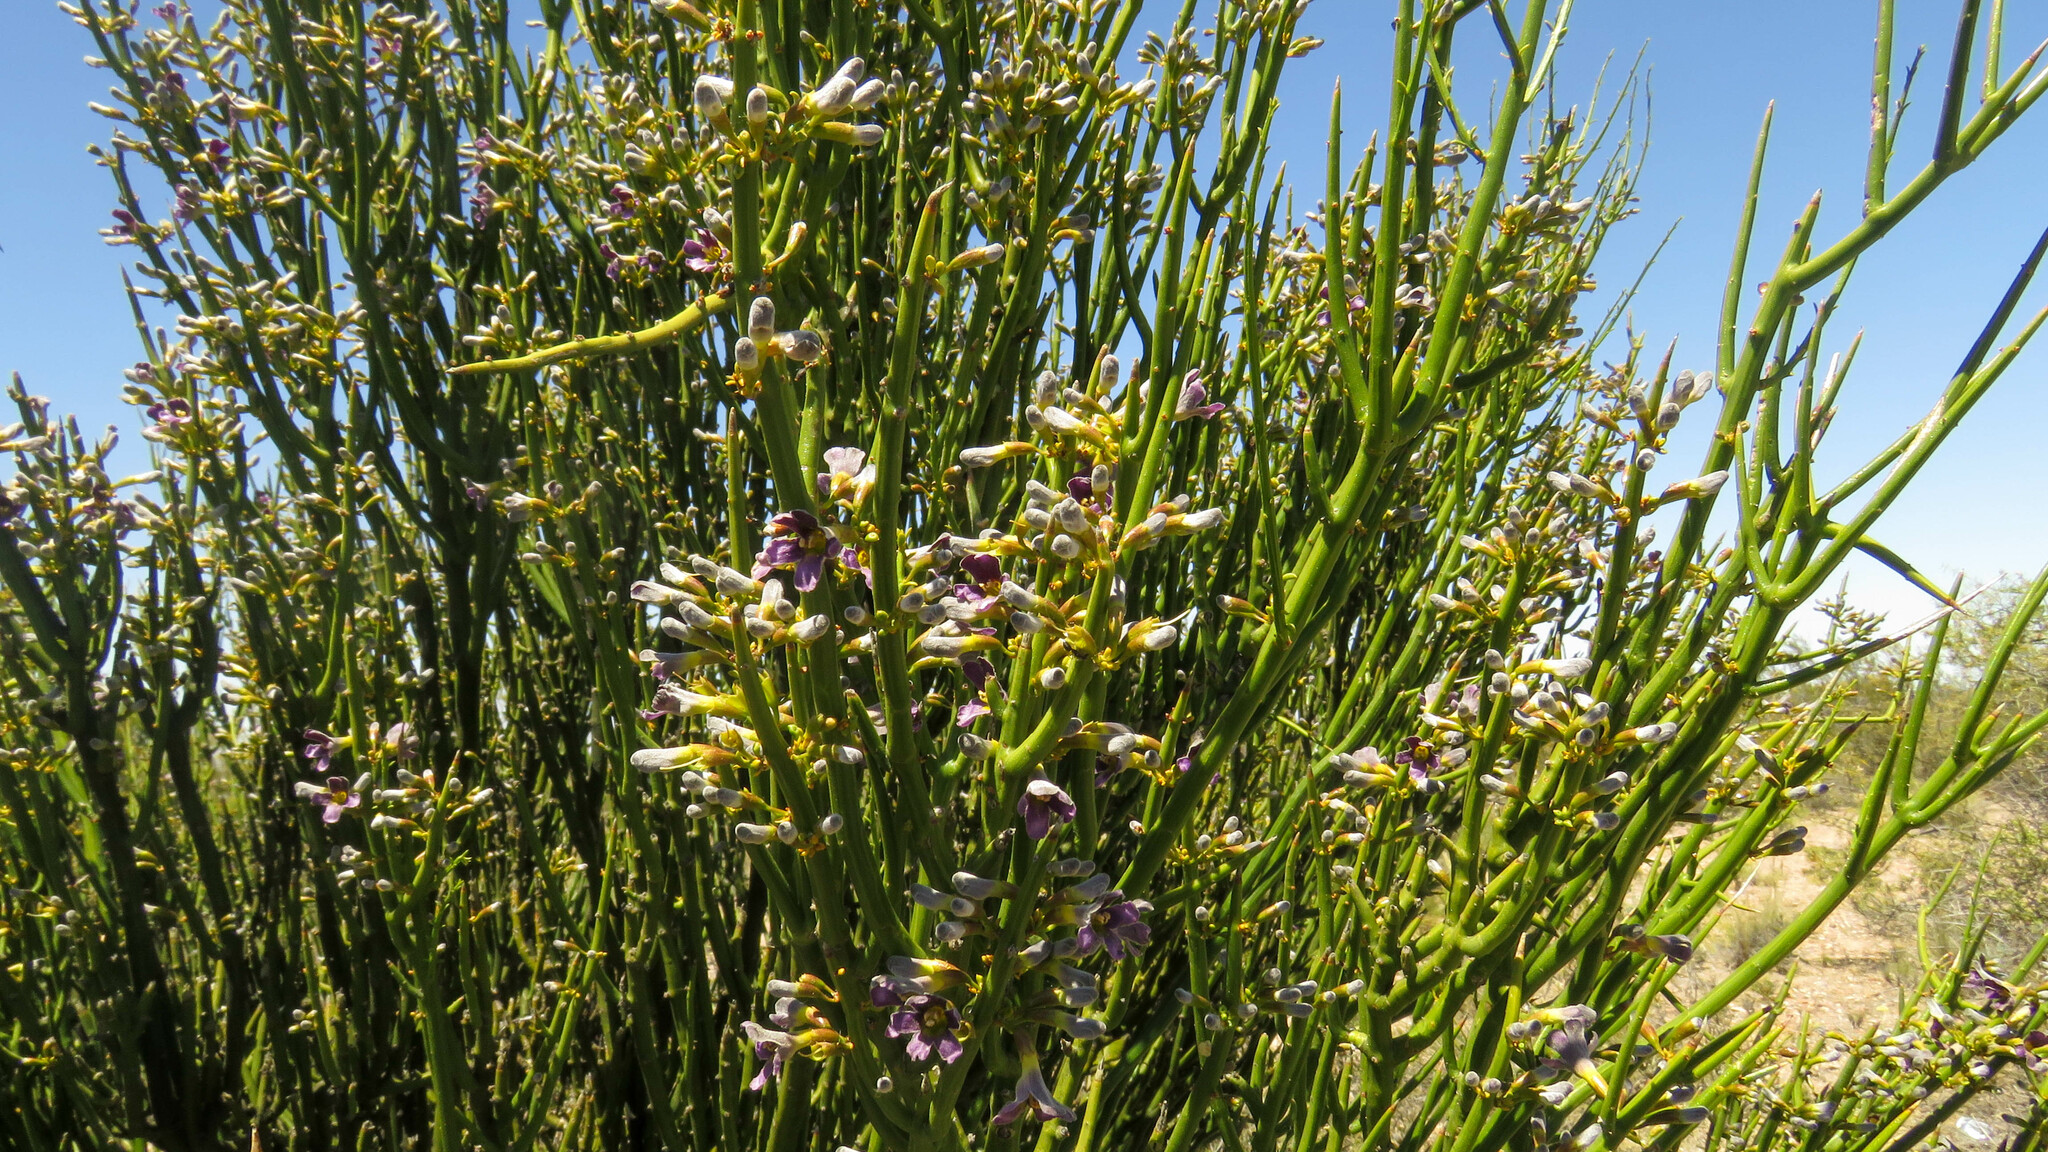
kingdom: Plantae
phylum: Tracheophyta
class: Magnoliopsida
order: Lamiales
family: Plantaginaceae
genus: Monttea
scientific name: Monttea aphylla
